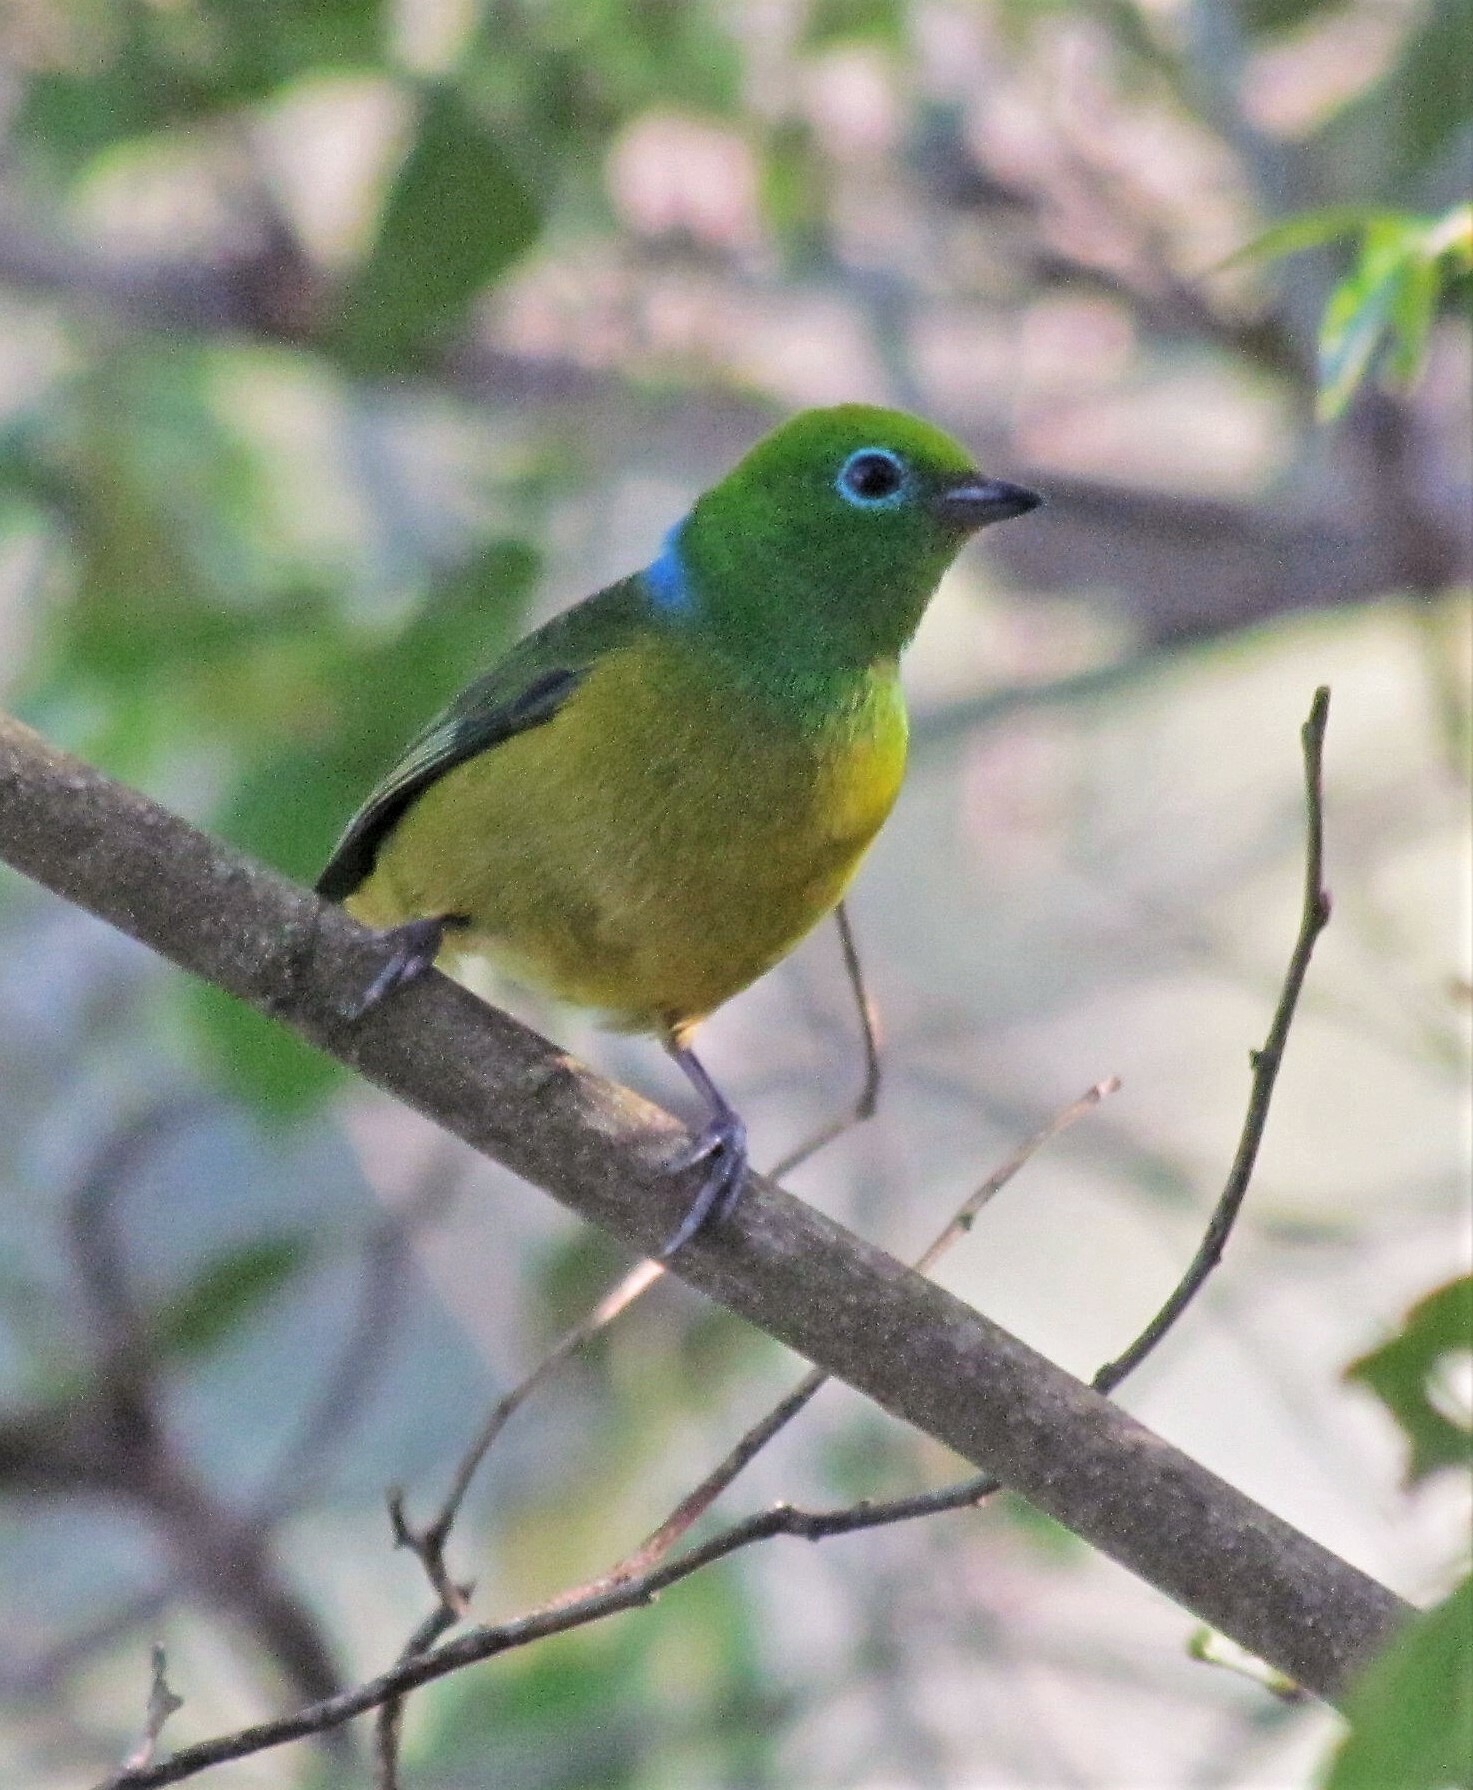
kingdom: Animalia
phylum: Chordata
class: Aves
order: Passeriformes
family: Fringillidae
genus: Chlorophonia
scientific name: Chlorophonia cyanea
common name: Blue-naped chlorophonia
